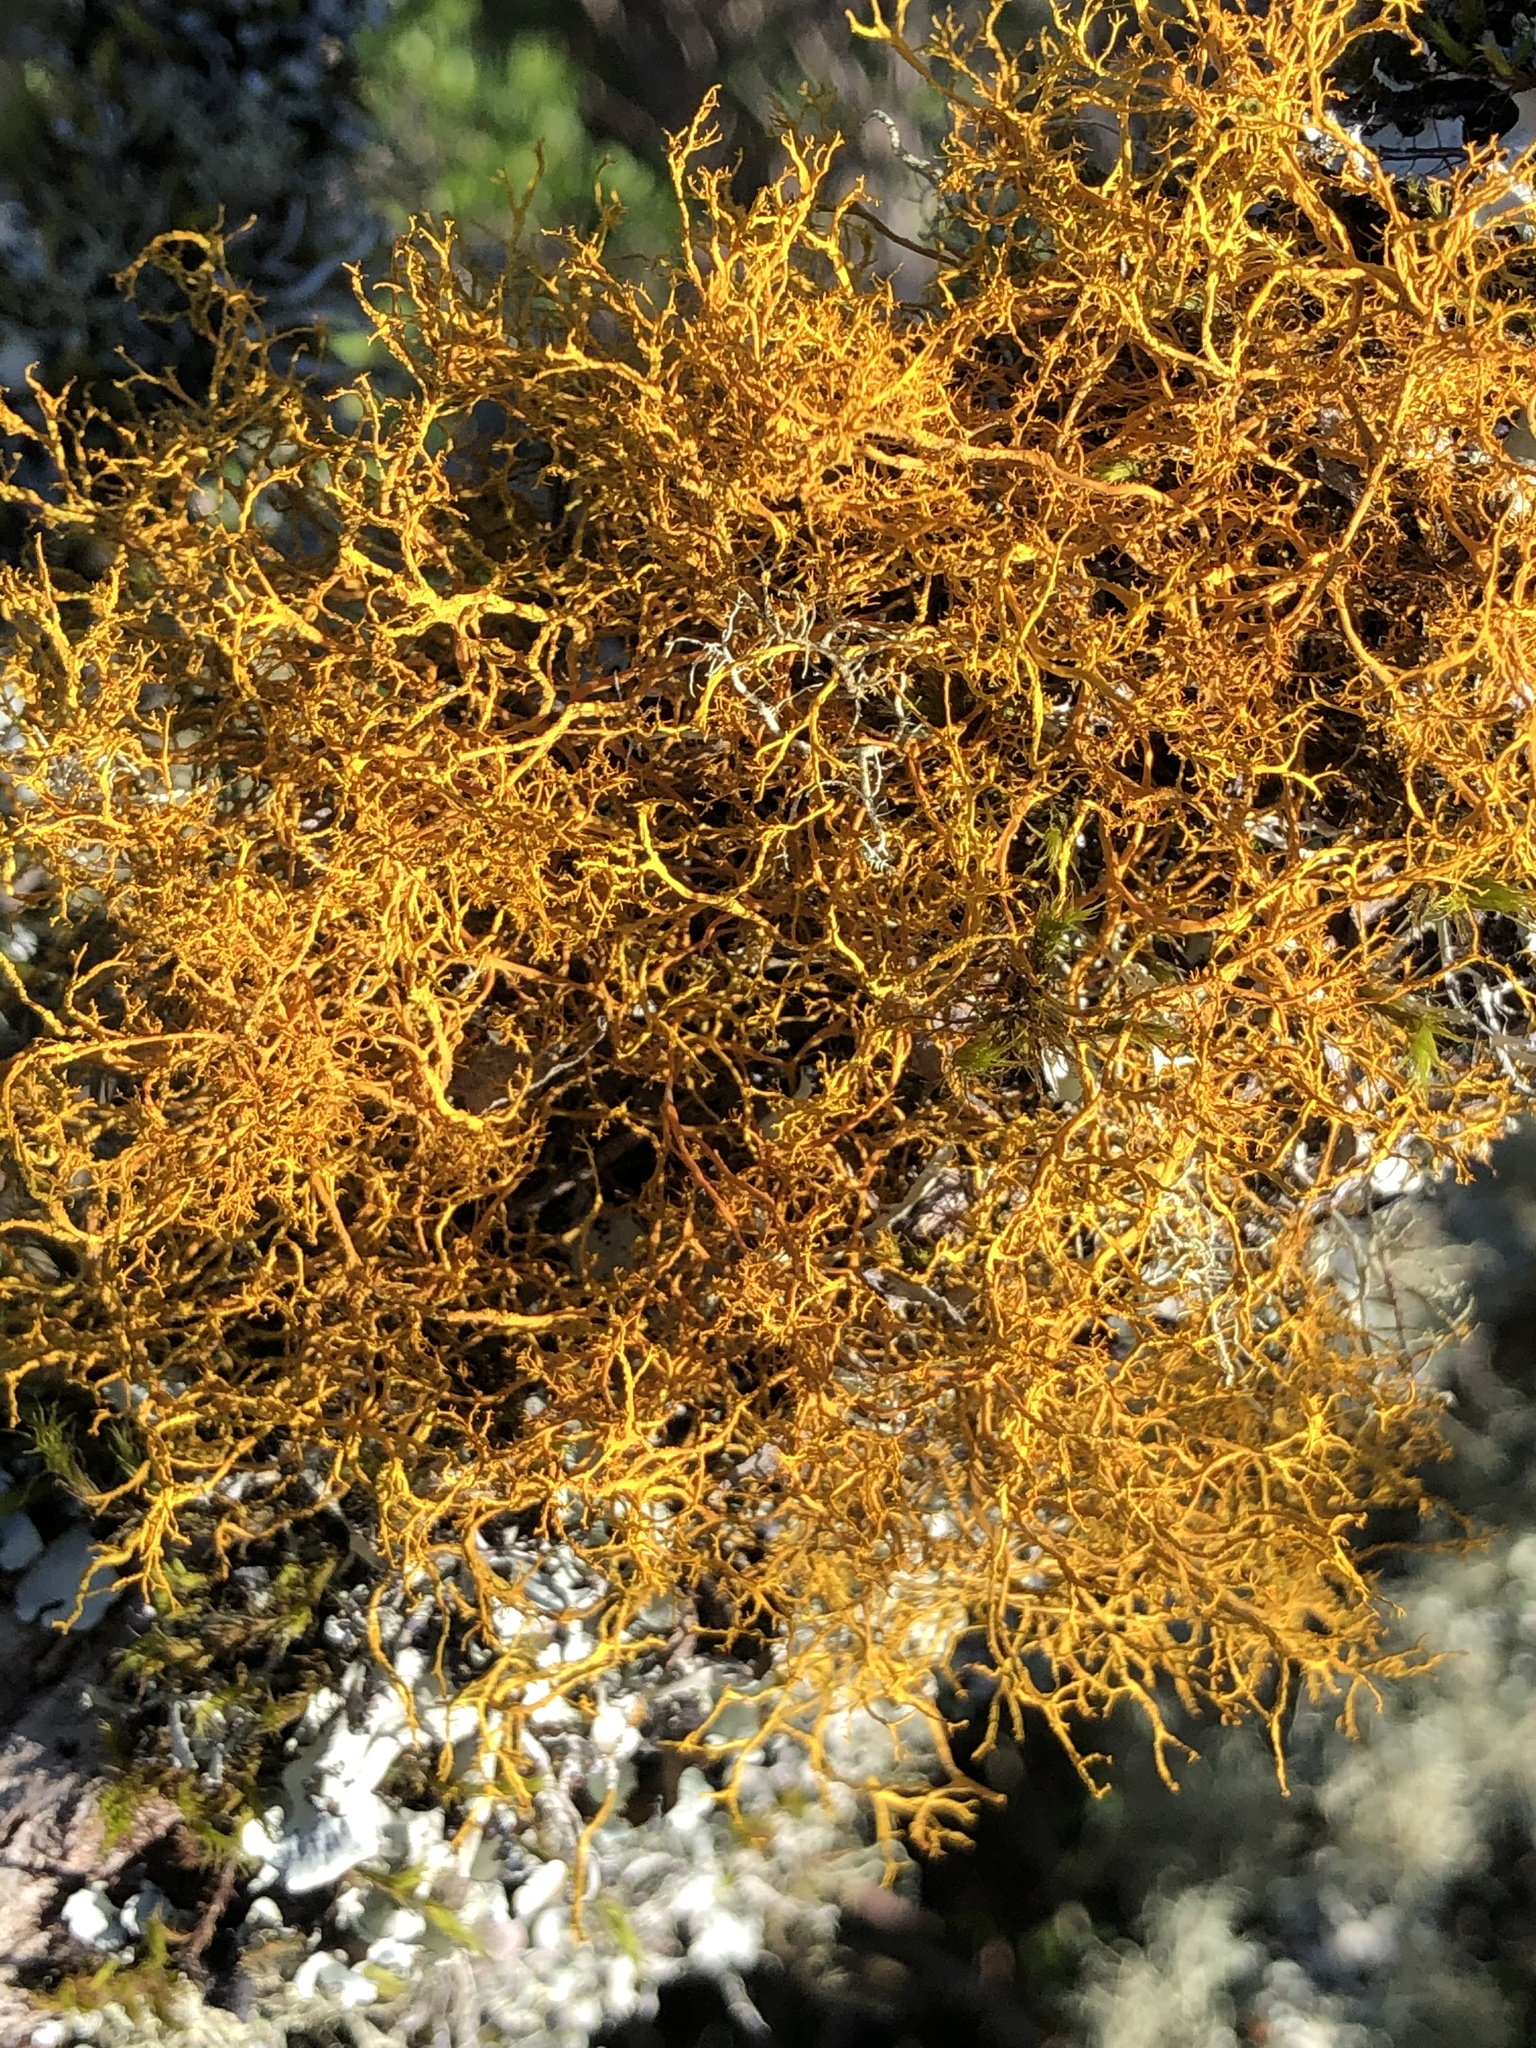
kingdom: Fungi
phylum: Ascomycota
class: Lecanoromycetes
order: Teloschistales
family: Teloschistaceae
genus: Teloschistes
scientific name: Teloschistes flavicans
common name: Golden hair-lichen
